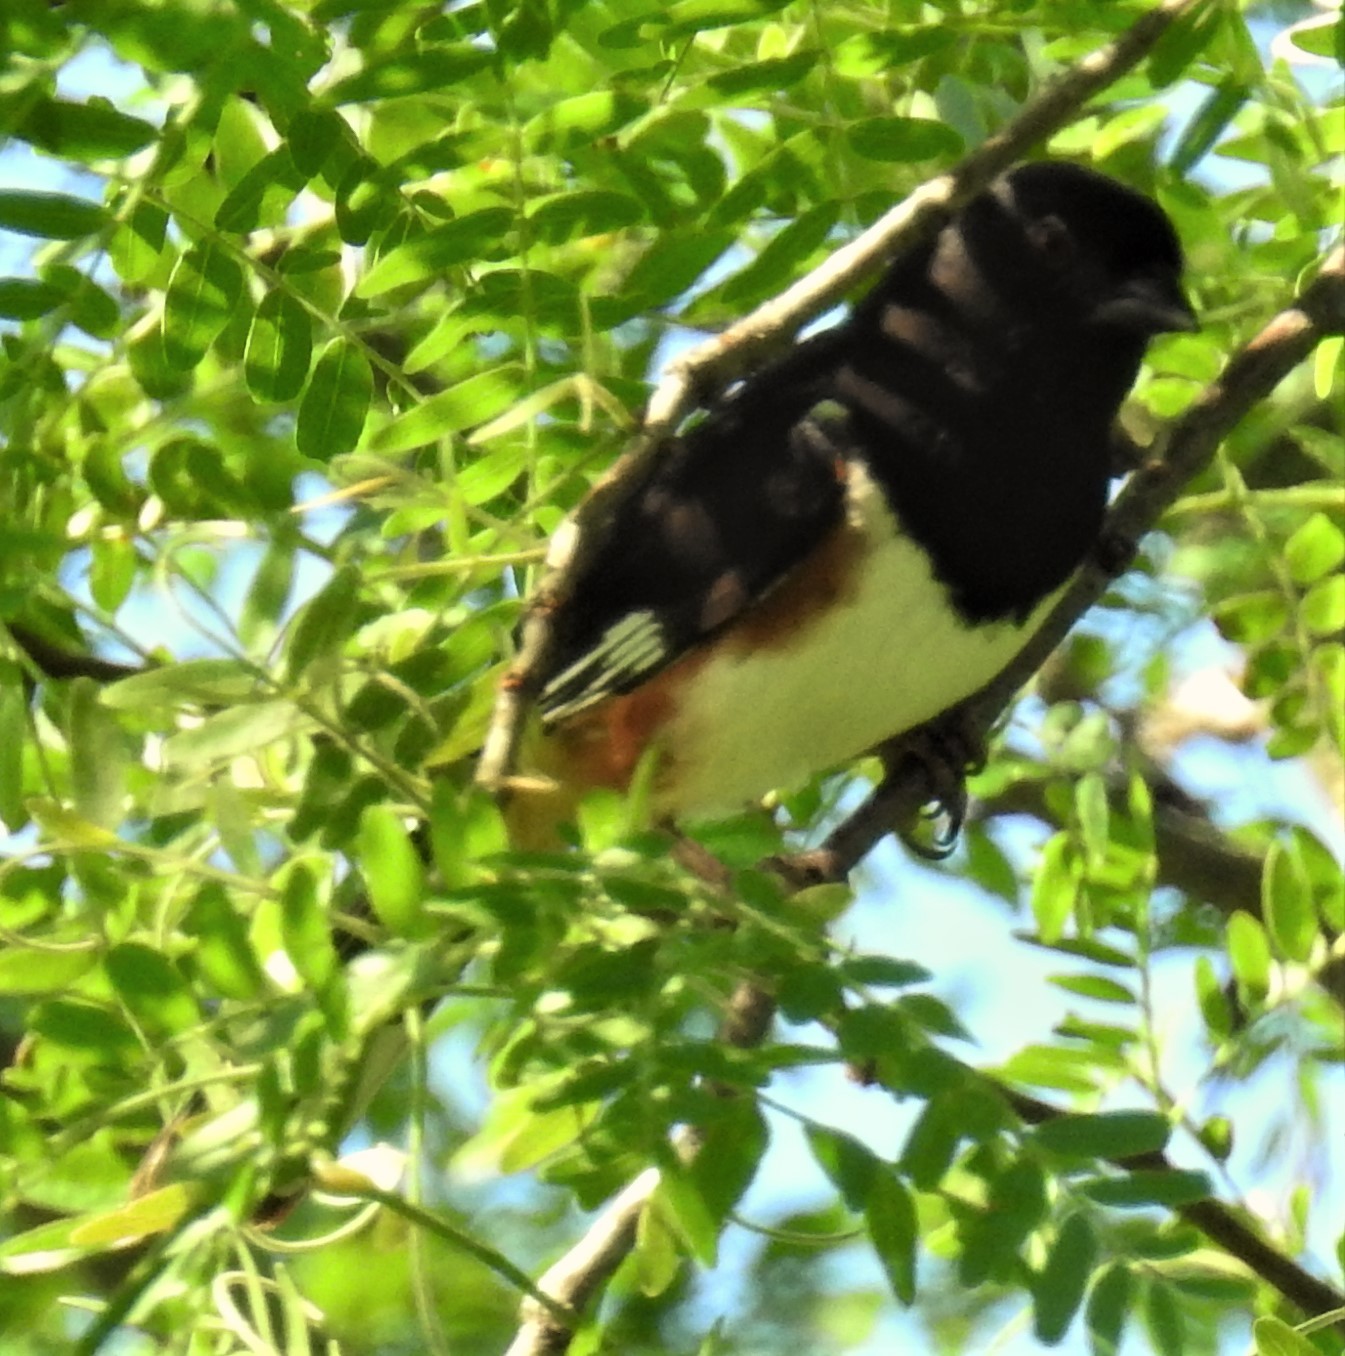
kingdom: Animalia
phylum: Chordata
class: Aves
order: Passeriformes
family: Passerellidae
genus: Pipilo
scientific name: Pipilo erythrophthalmus
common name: Eastern towhee
